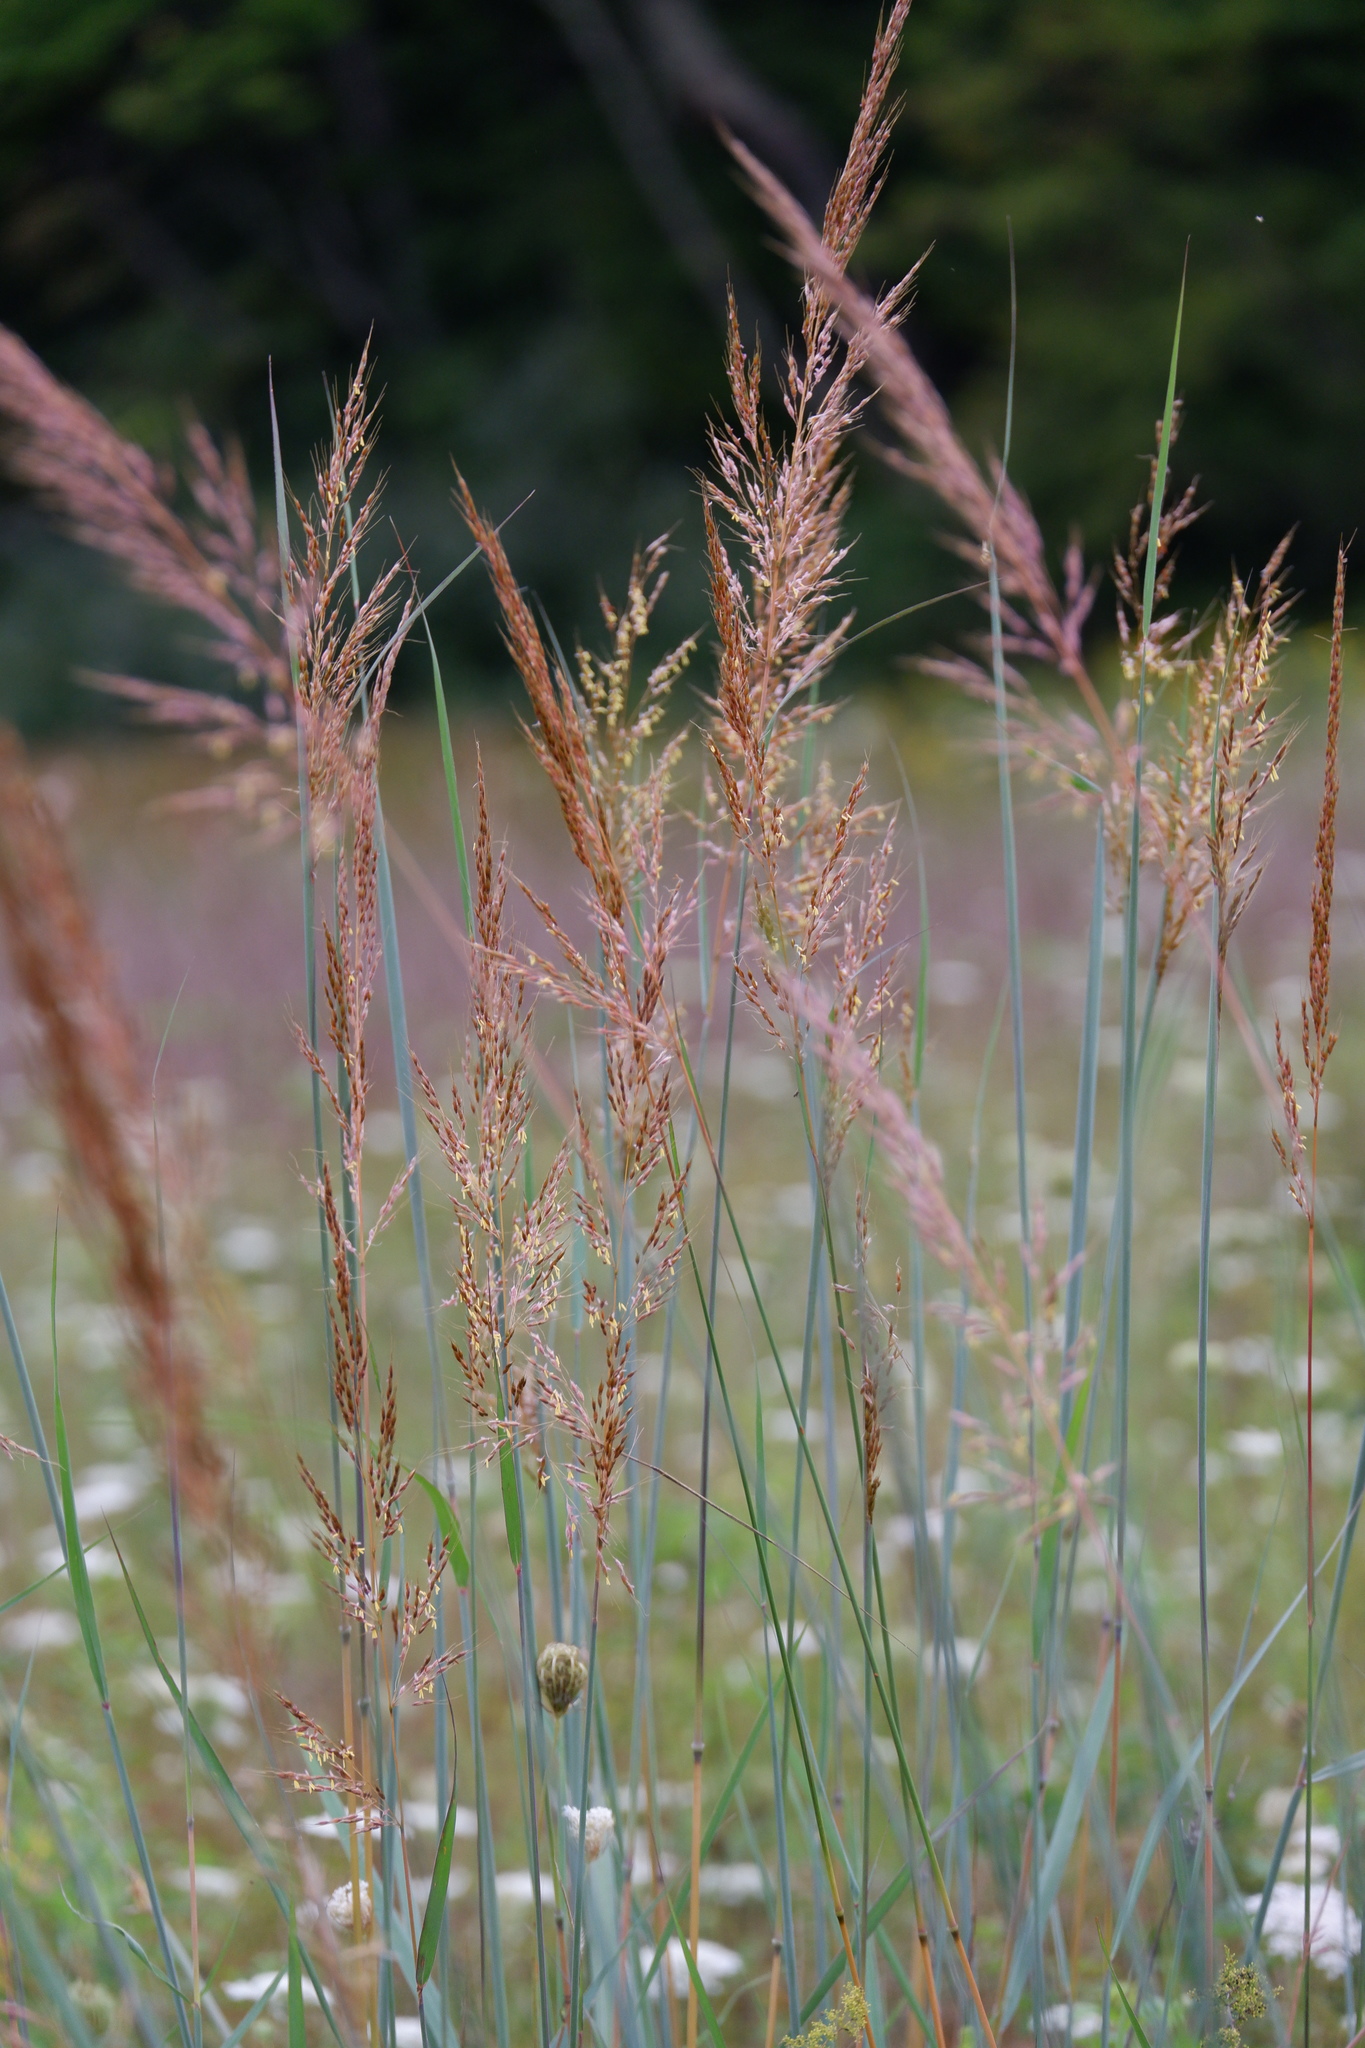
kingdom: Plantae
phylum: Tracheophyta
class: Liliopsida
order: Poales
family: Poaceae
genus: Sorghastrum
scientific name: Sorghastrum nutans
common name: Indian grass
